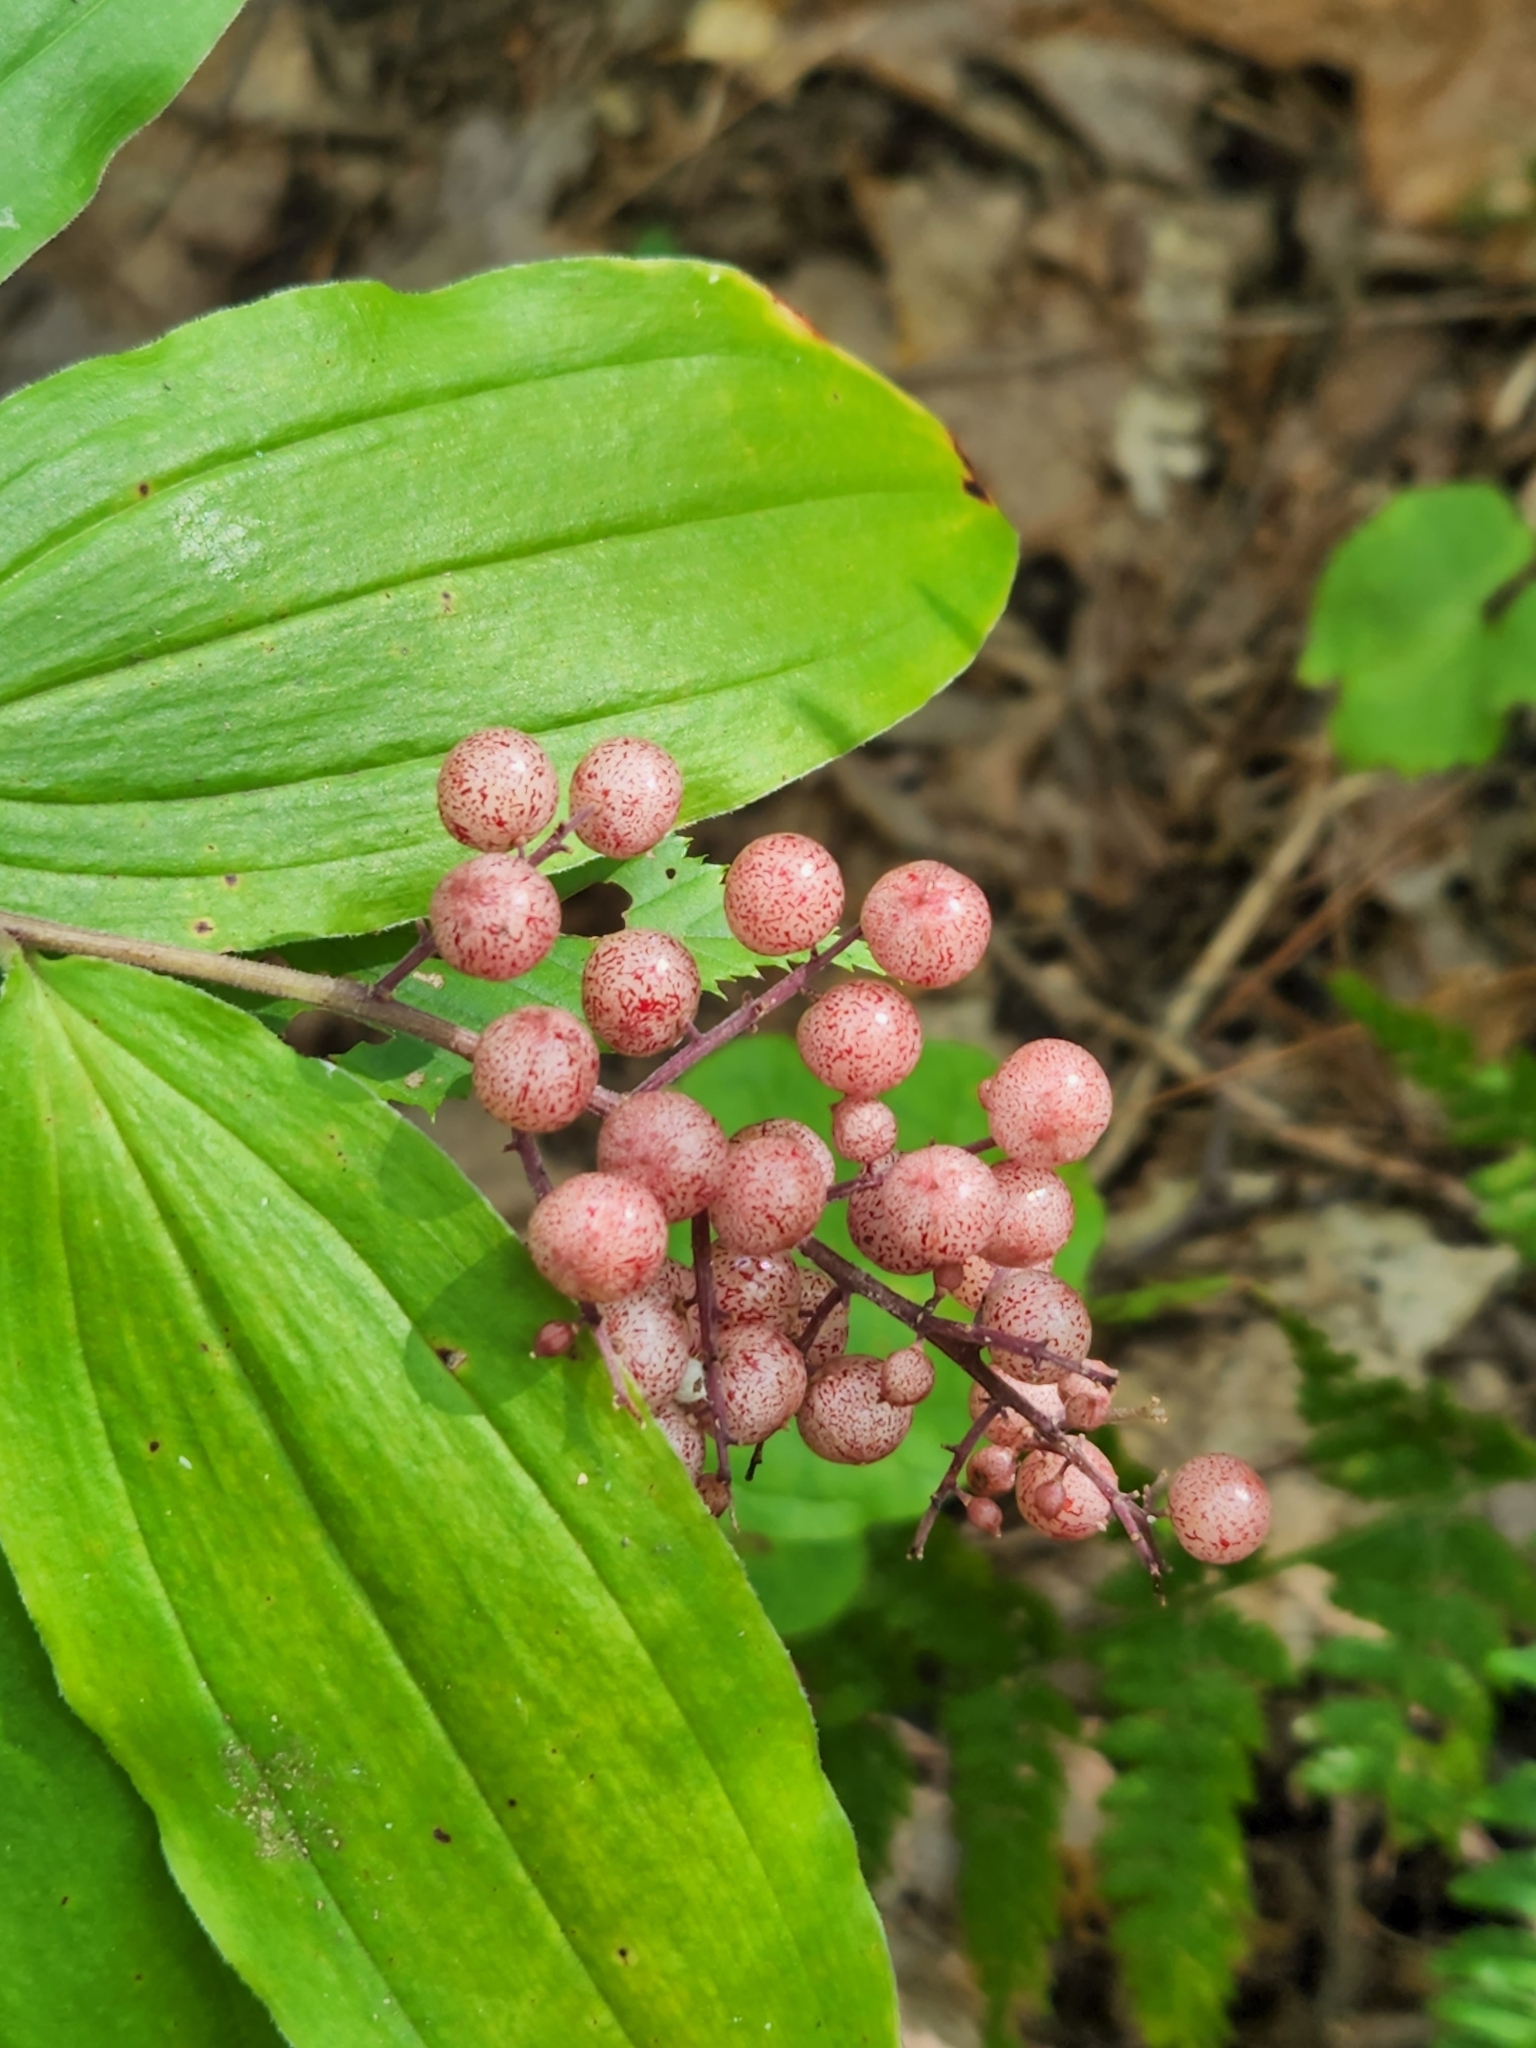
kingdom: Plantae
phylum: Tracheophyta
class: Liliopsida
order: Asparagales
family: Asparagaceae
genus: Maianthemum
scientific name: Maianthemum racemosum
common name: False spikenard
